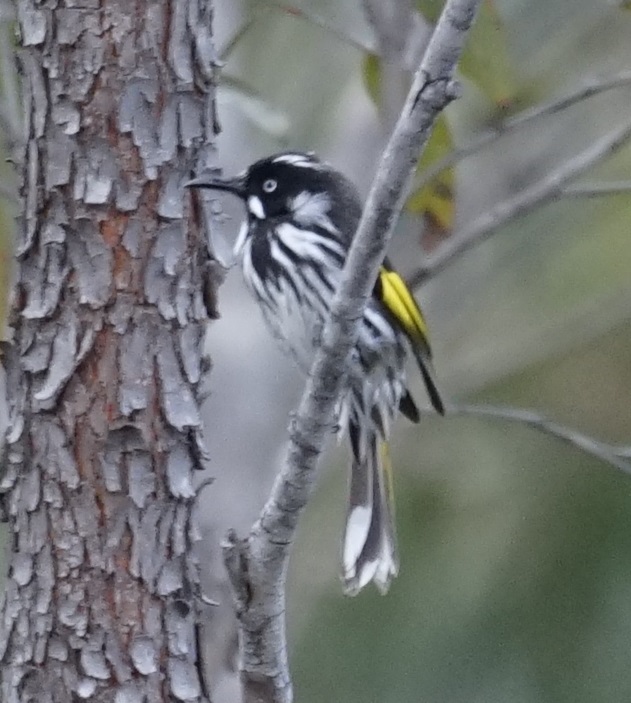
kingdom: Animalia
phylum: Chordata
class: Aves
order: Passeriformes
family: Meliphagidae
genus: Phylidonyris
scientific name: Phylidonyris novaehollandiae
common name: New holland honeyeater
